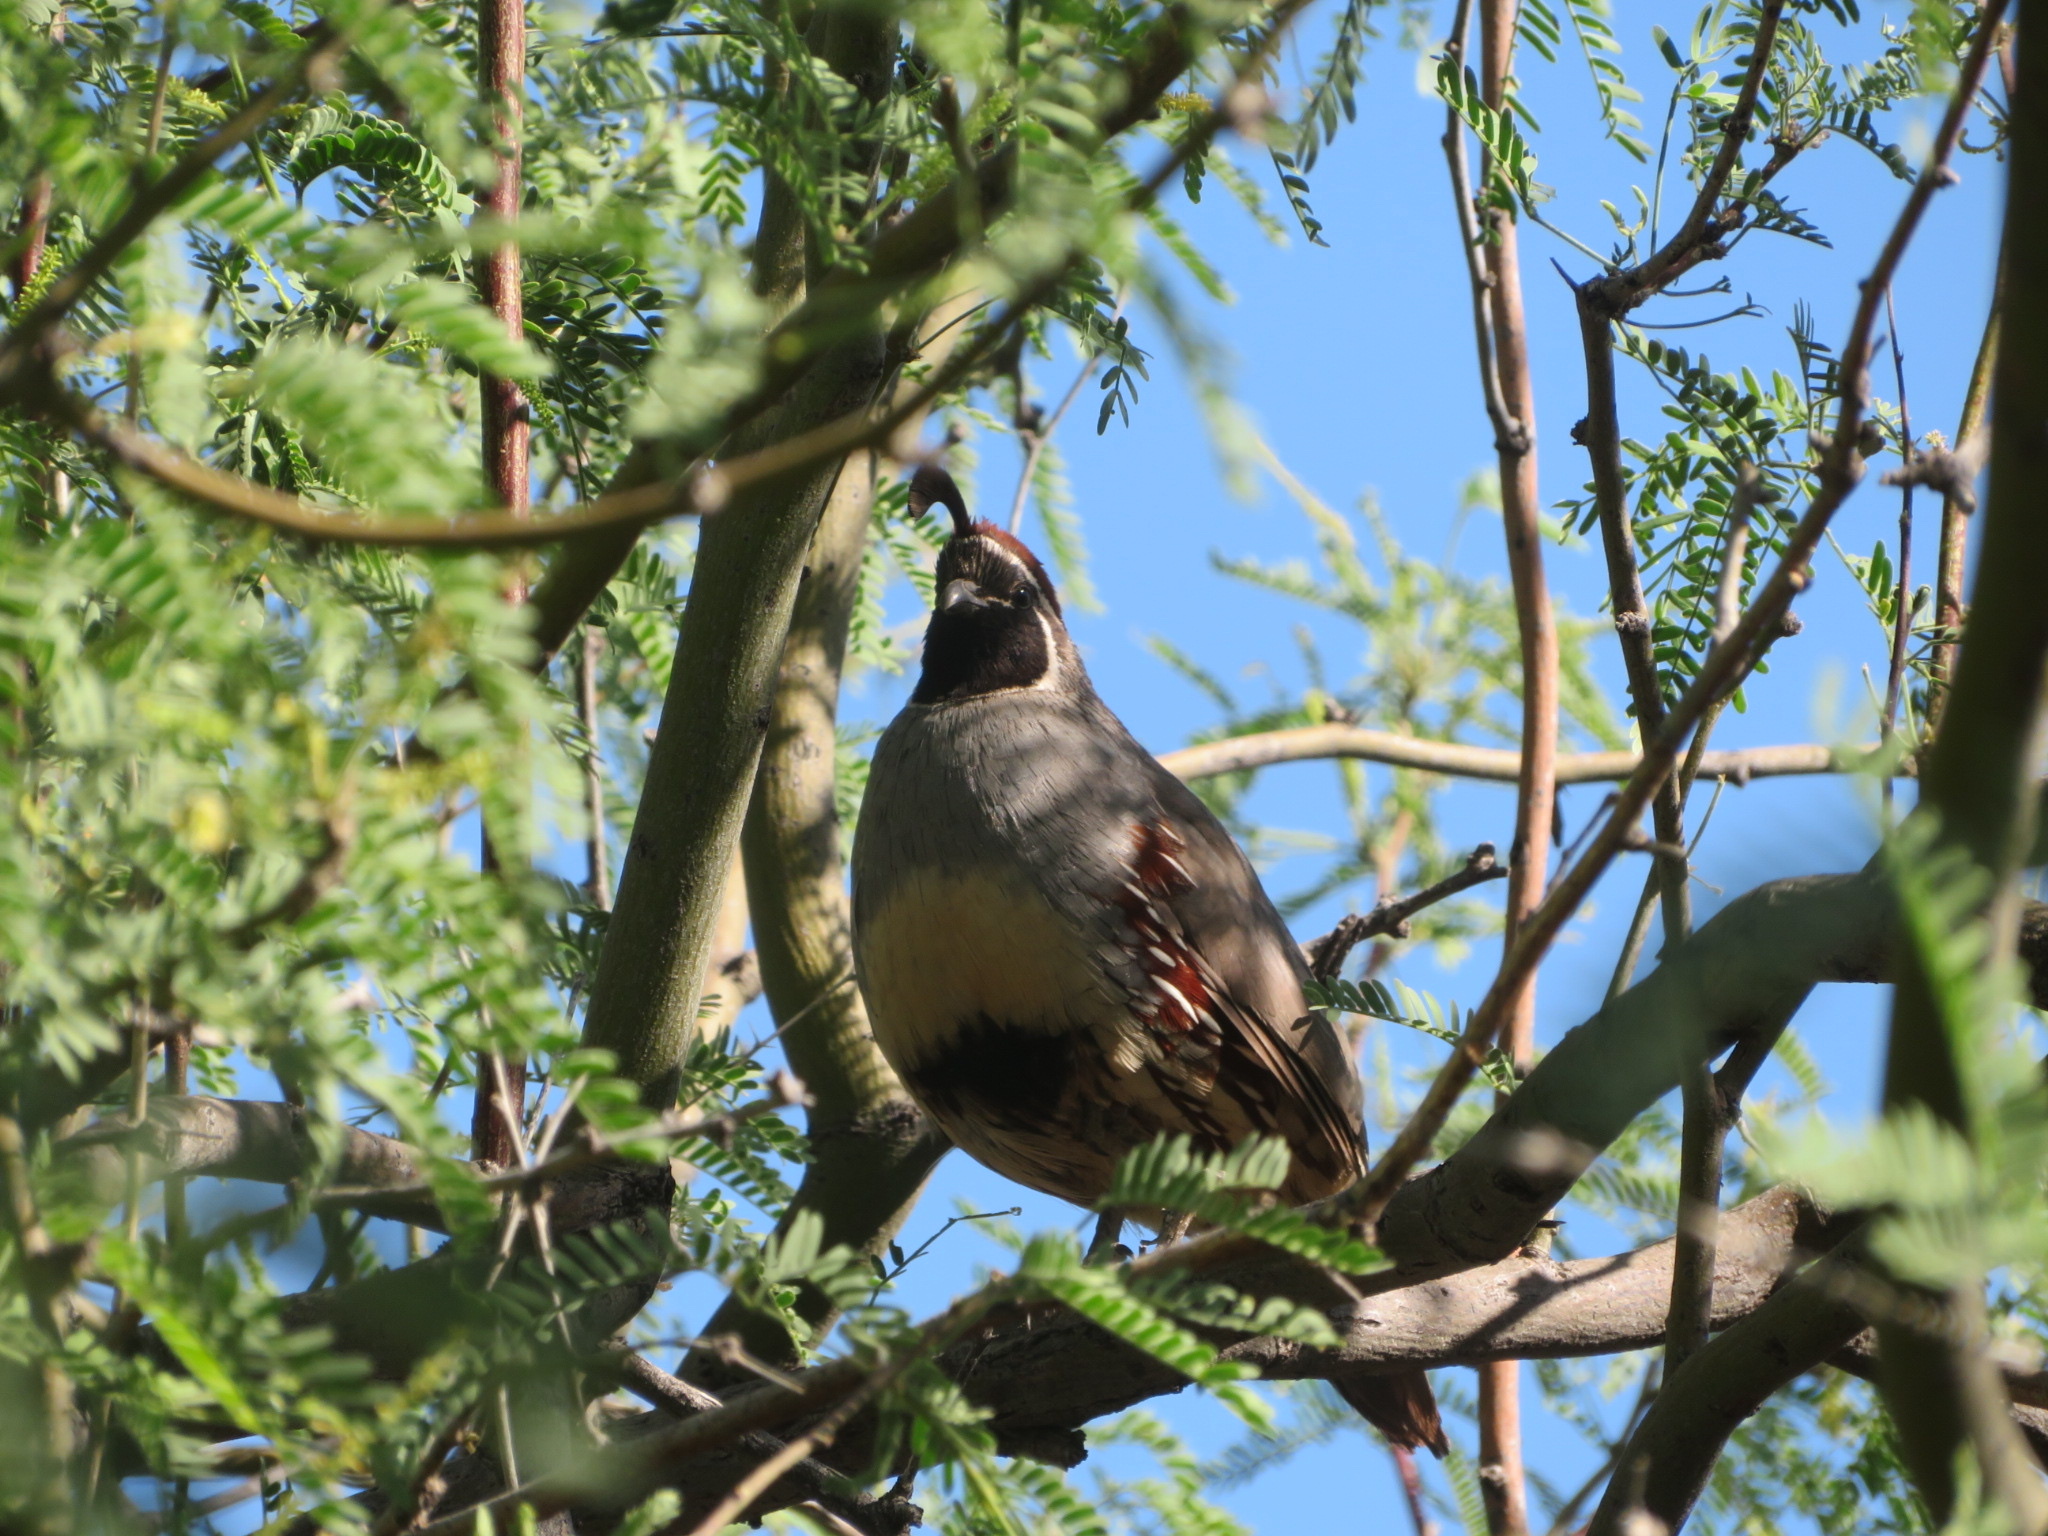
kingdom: Animalia
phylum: Chordata
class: Aves
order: Galliformes
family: Odontophoridae
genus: Callipepla
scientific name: Callipepla gambelii
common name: Gambel's quail
